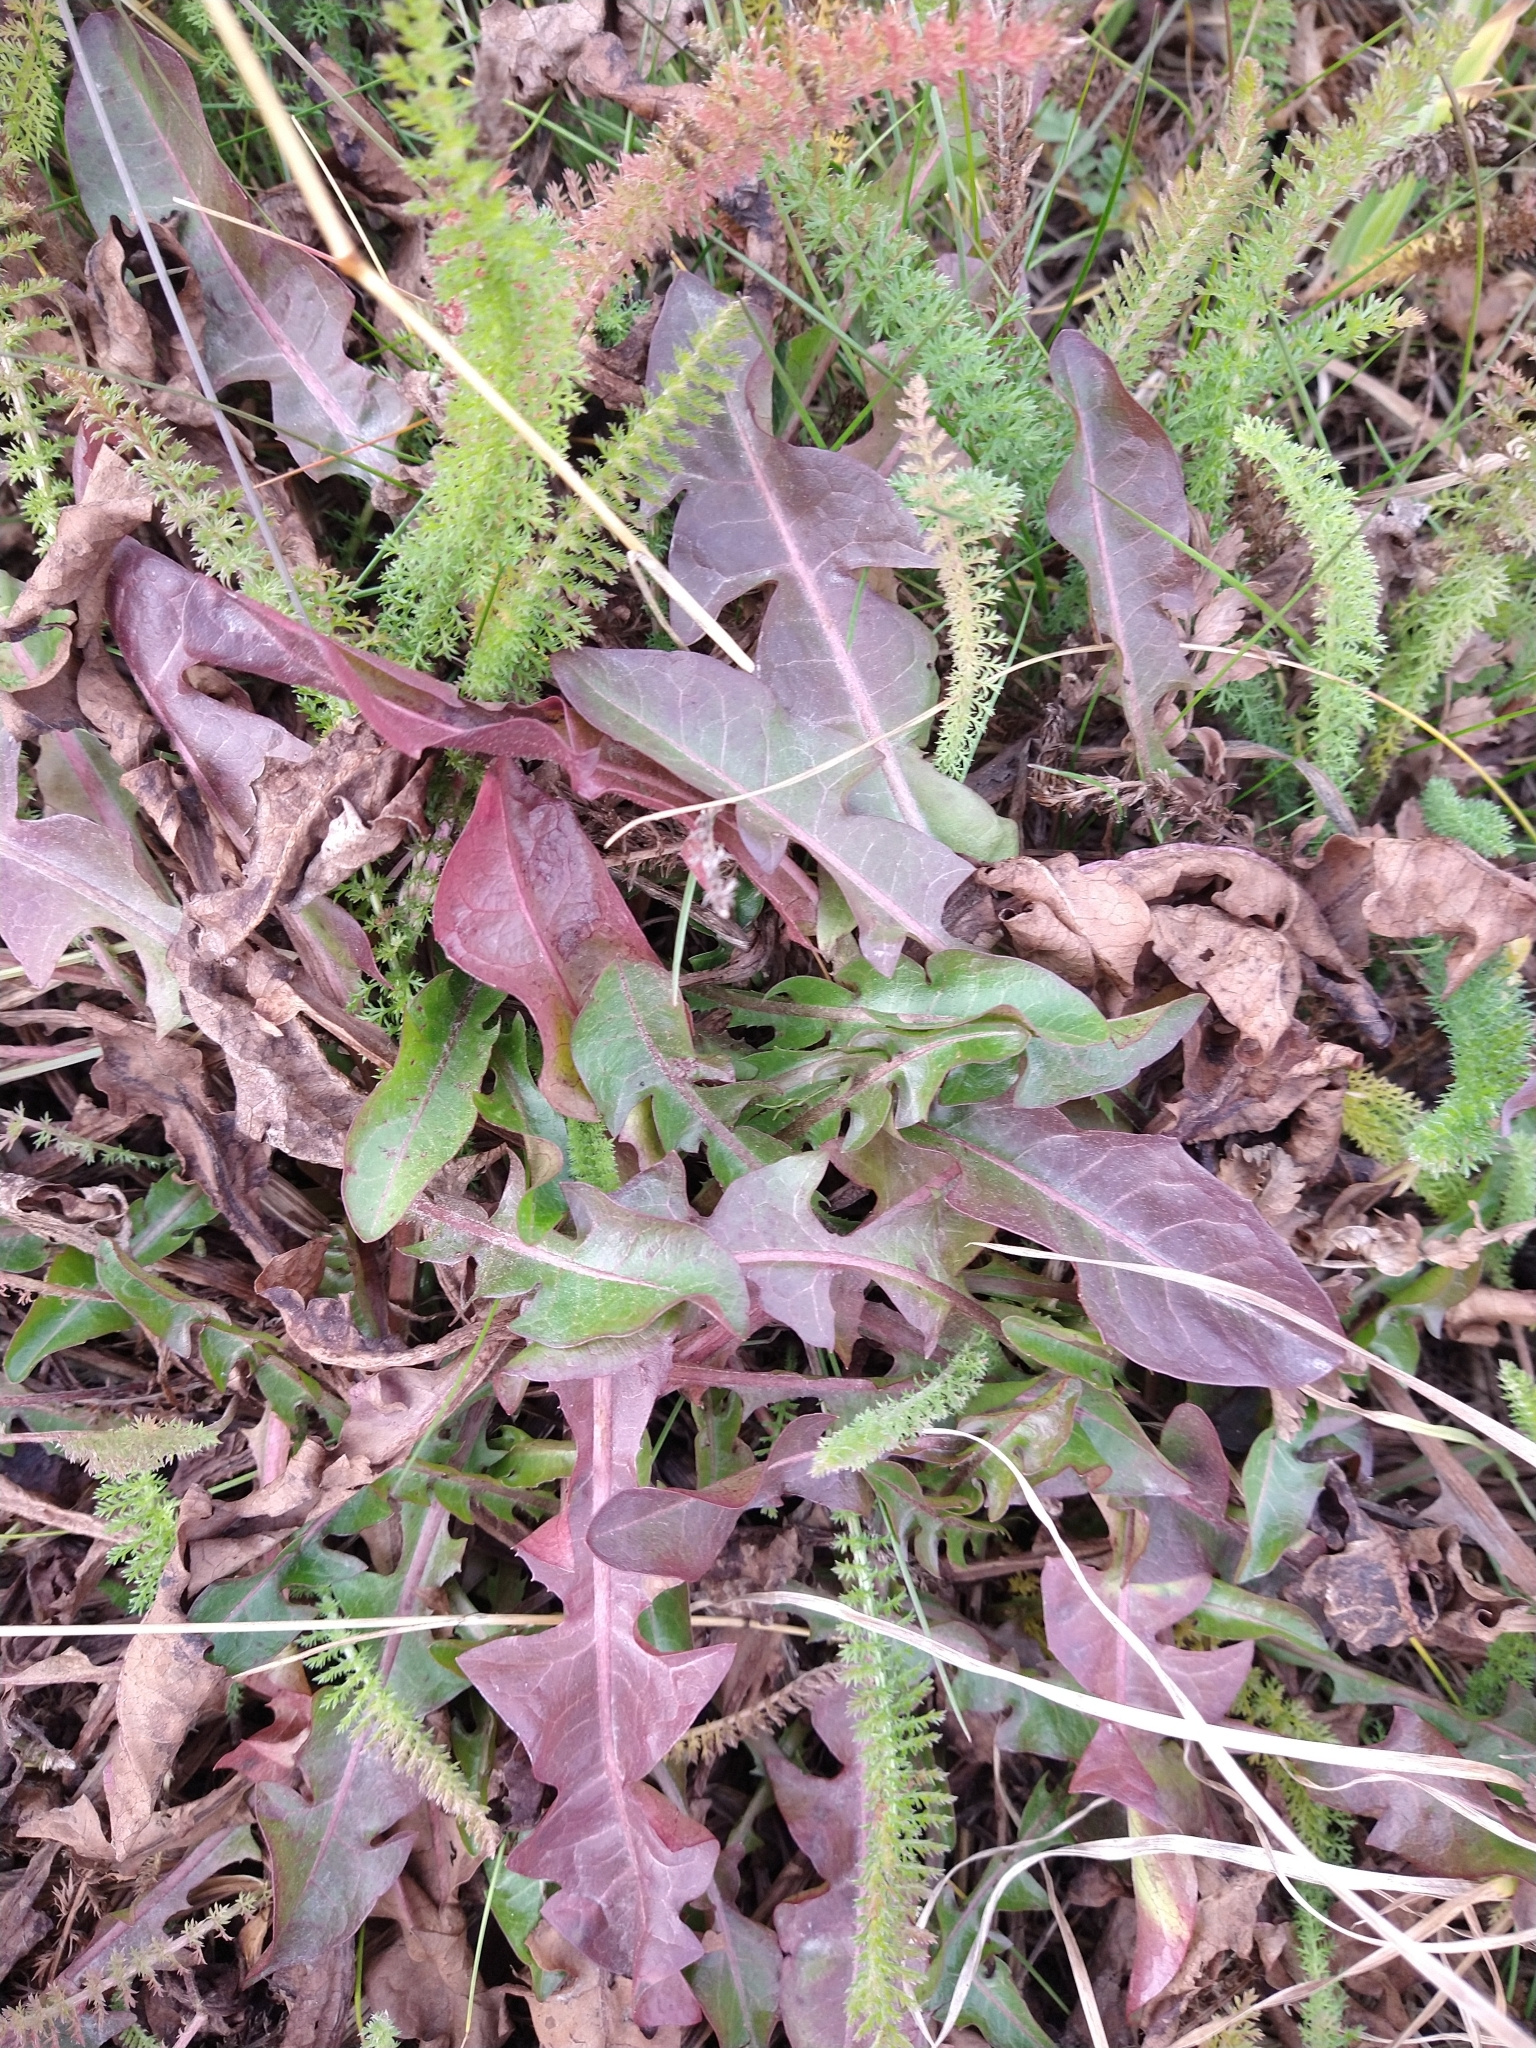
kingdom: Plantae
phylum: Tracheophyta
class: Magnoliopsida
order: Asterales
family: Asteraceae
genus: Taraxacum
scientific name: Taraxacum officinale
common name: Common dandelion
